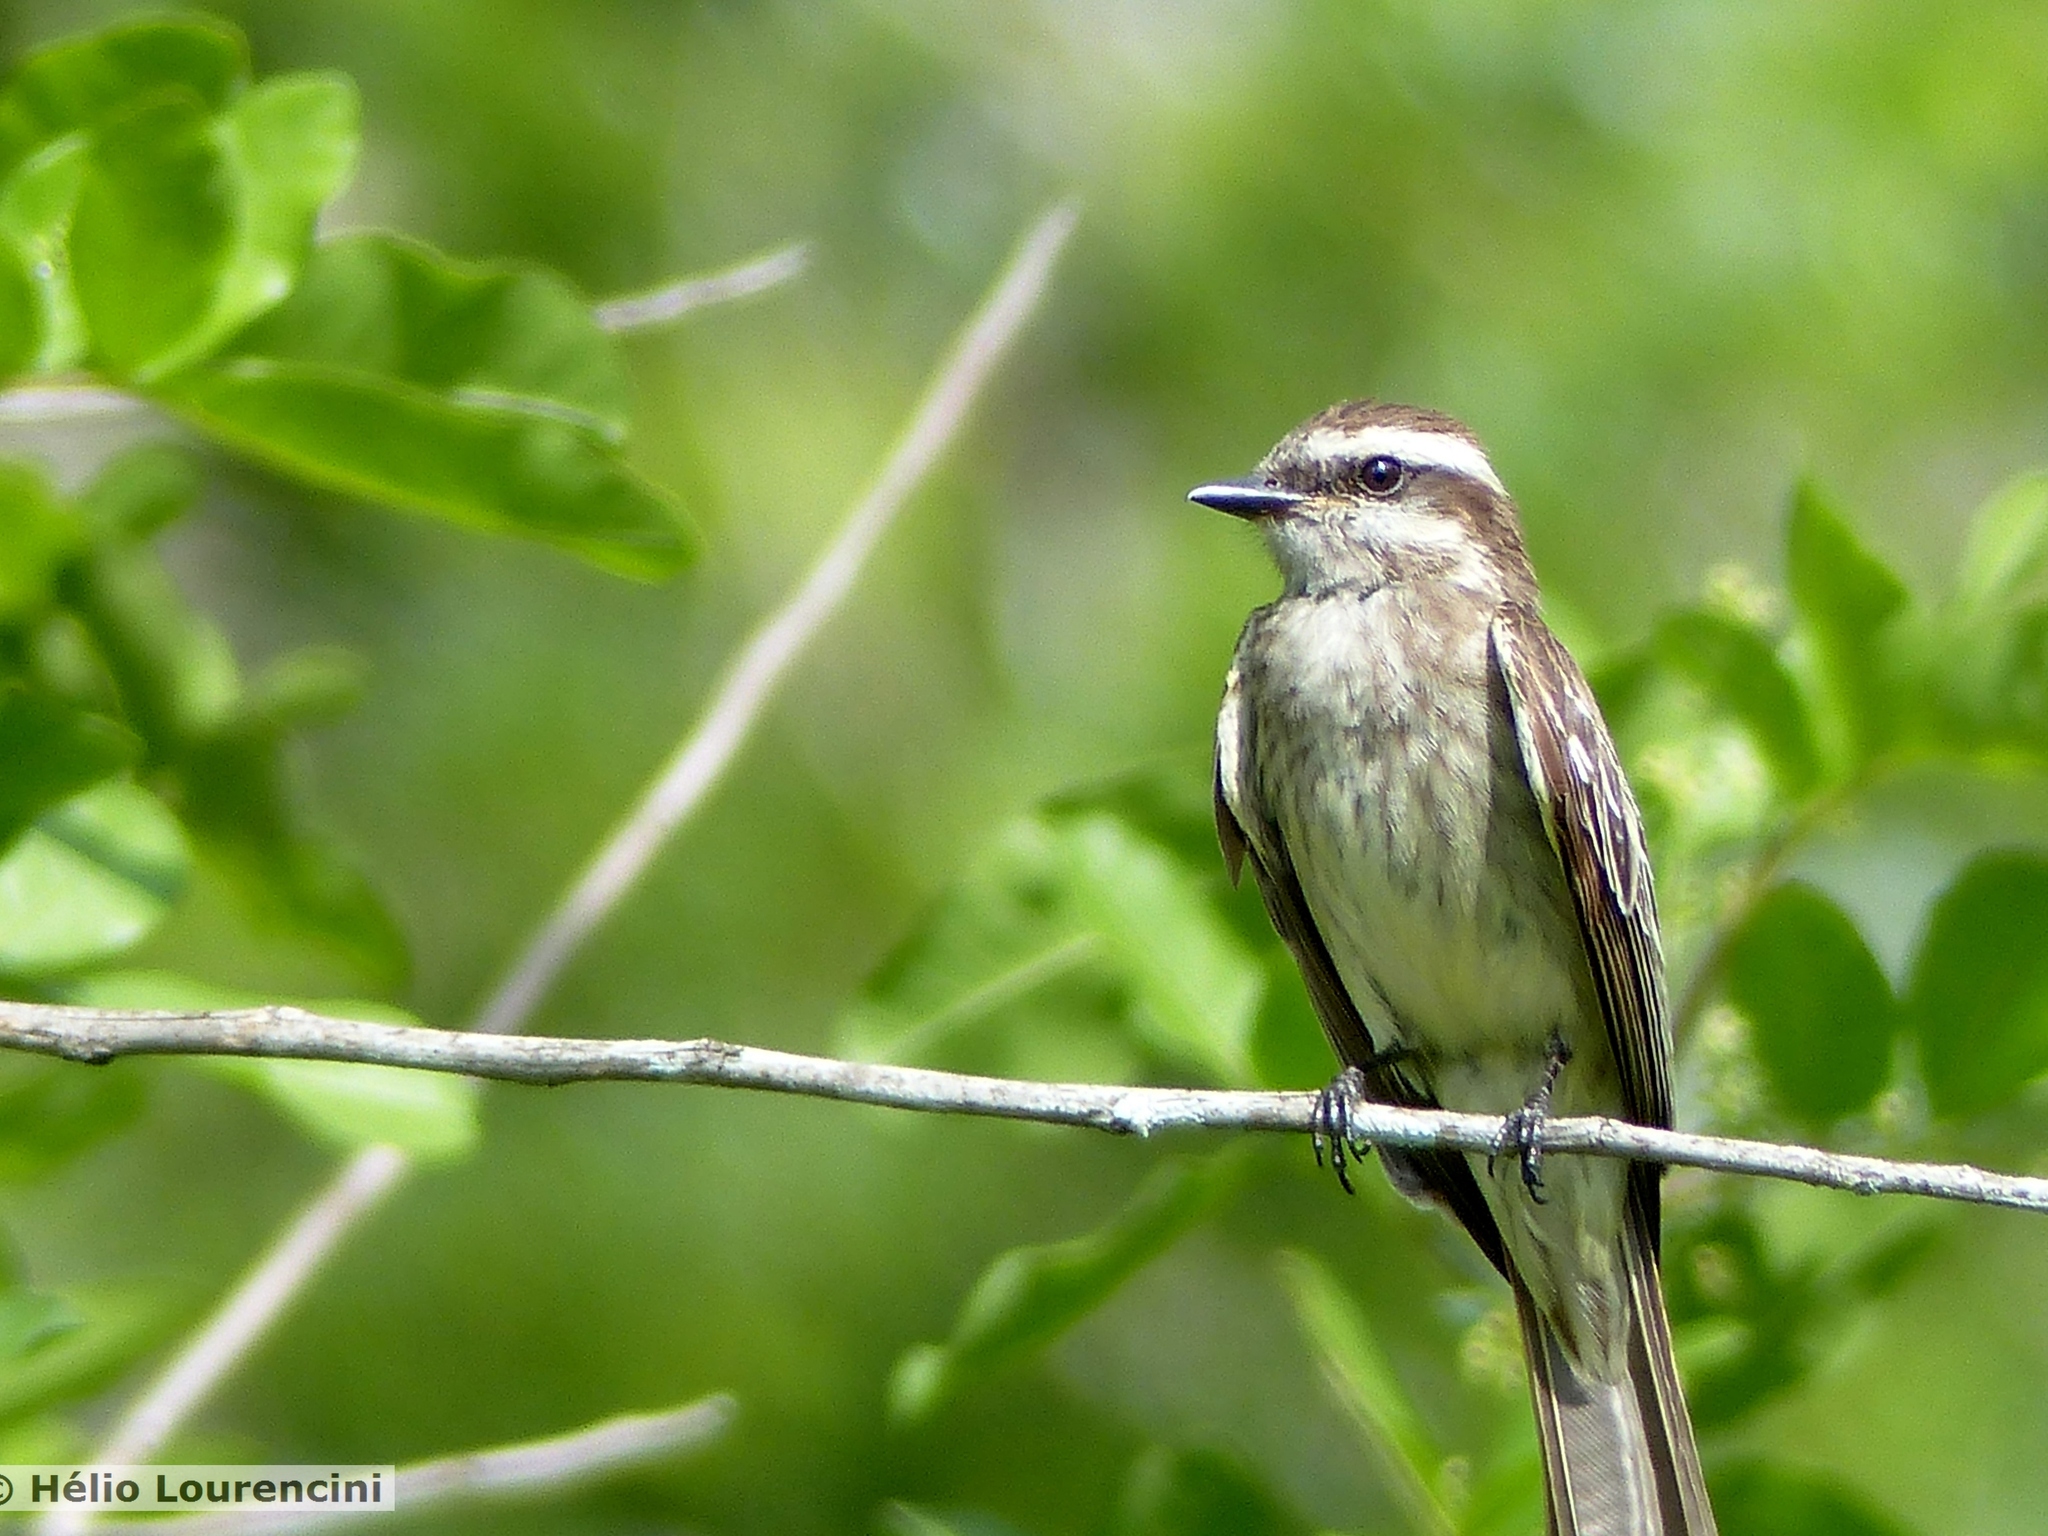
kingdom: Animalia
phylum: Chordata
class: Aves
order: Passeriformes
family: Tyrannidae
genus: Empidonomus
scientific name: Empidonomus varius
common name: Variegated flycatcher
